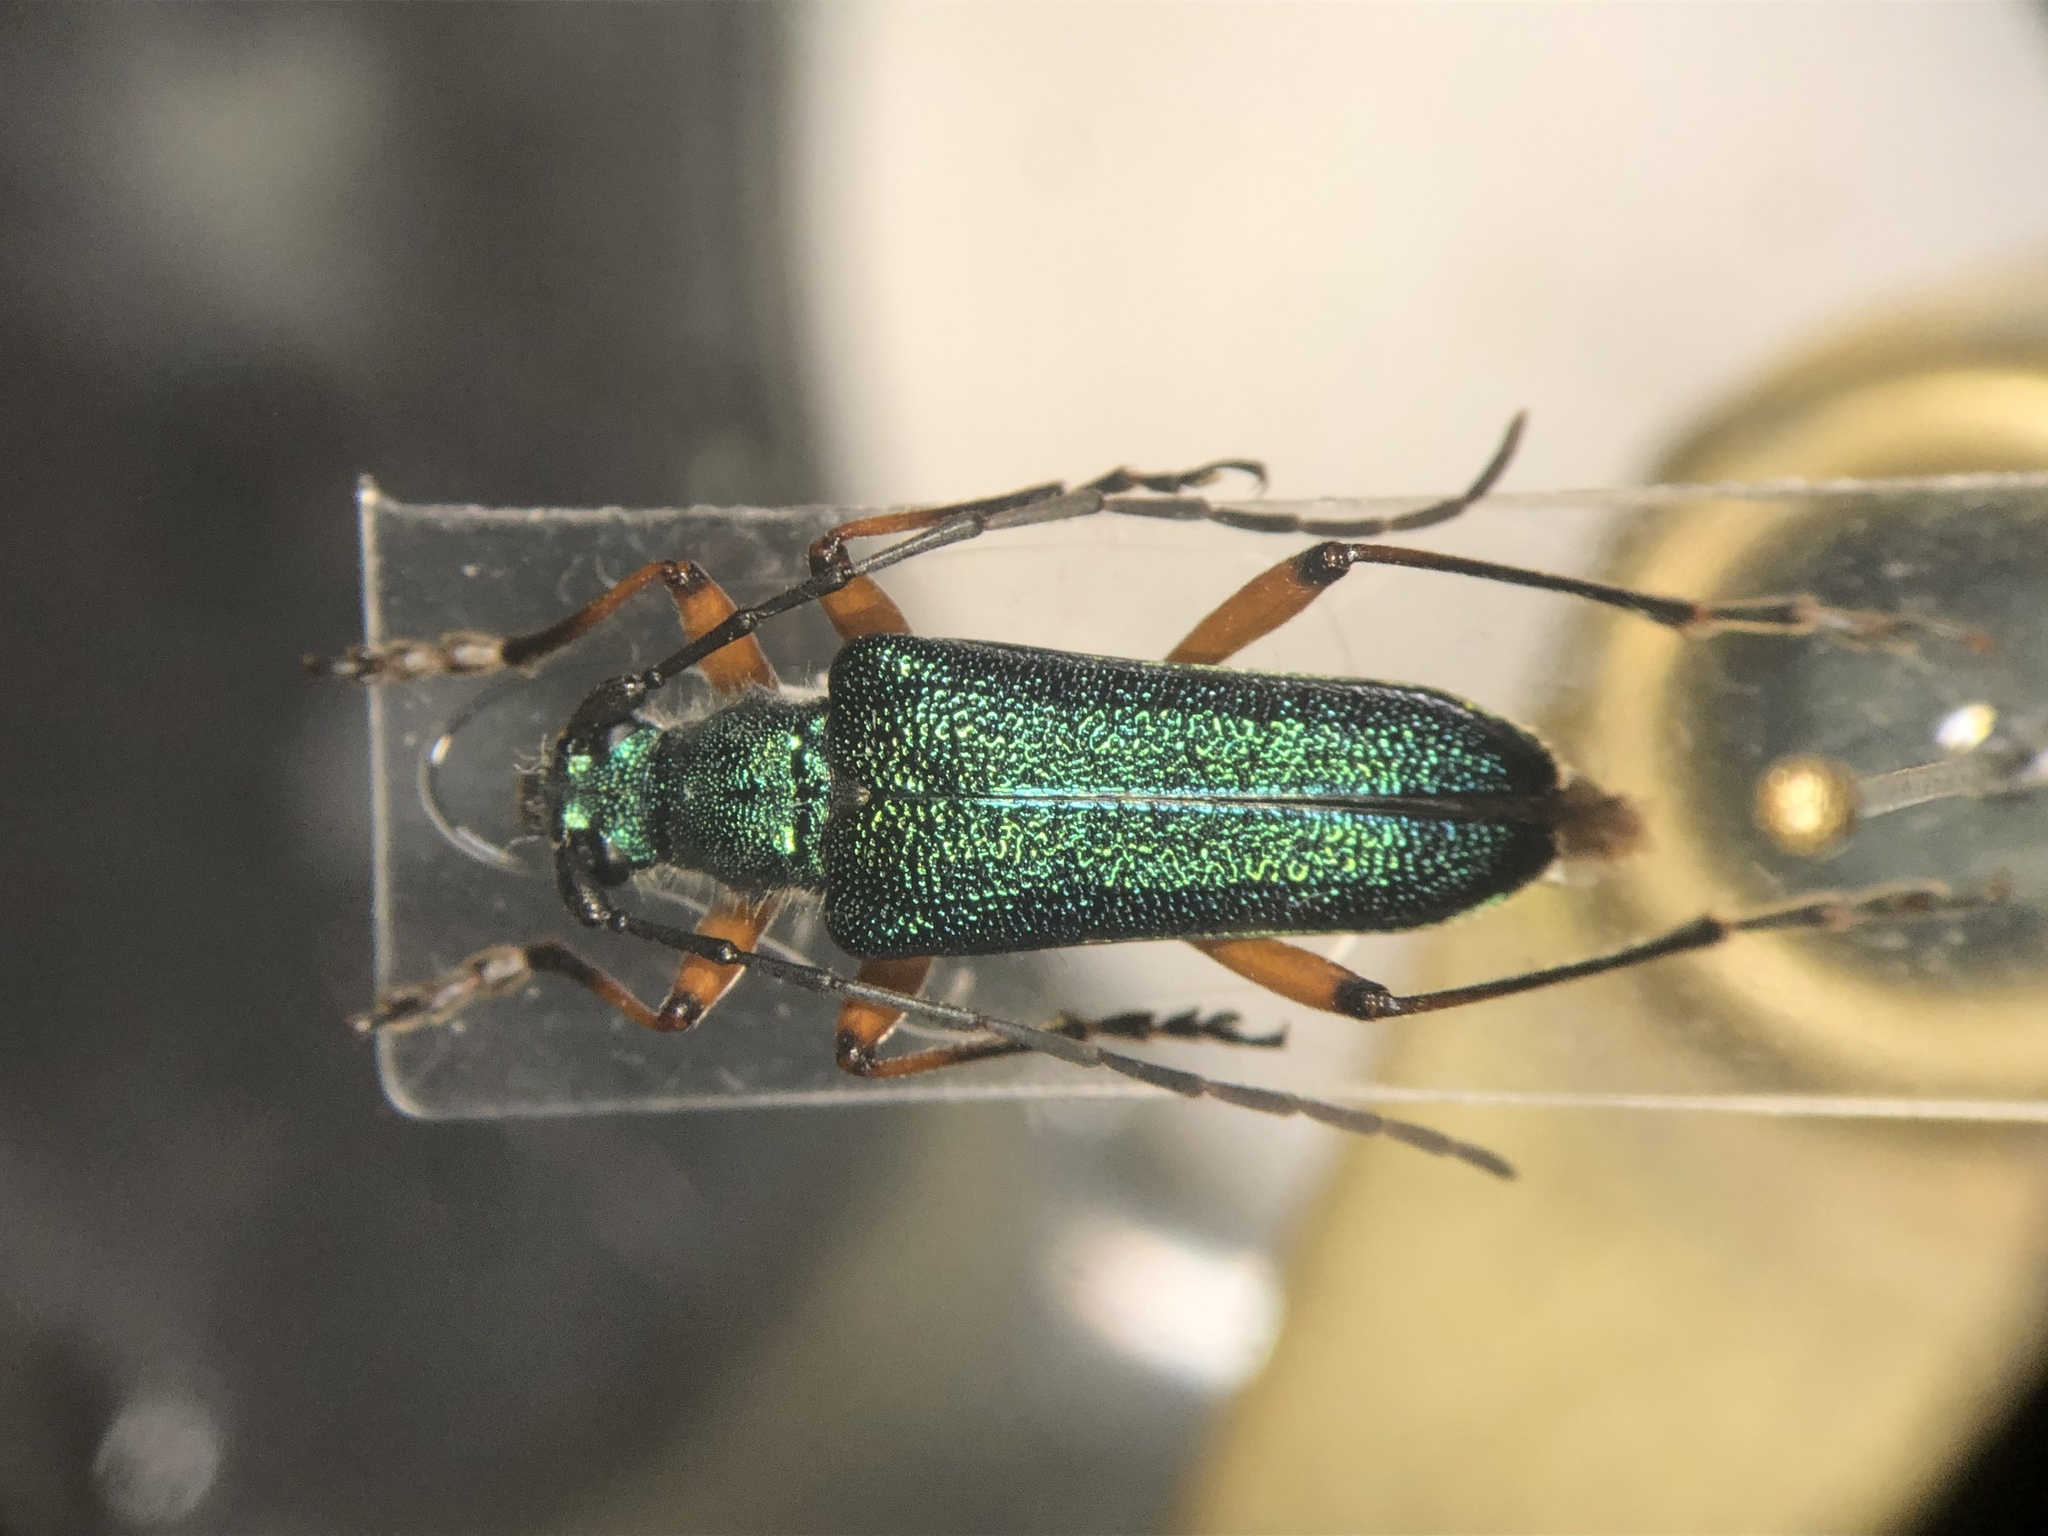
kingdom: Animalia
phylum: Arthropoda
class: Insecta
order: Coleoptera
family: Cerambycidae
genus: Anthophylax
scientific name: Anthophylax cyaneus
